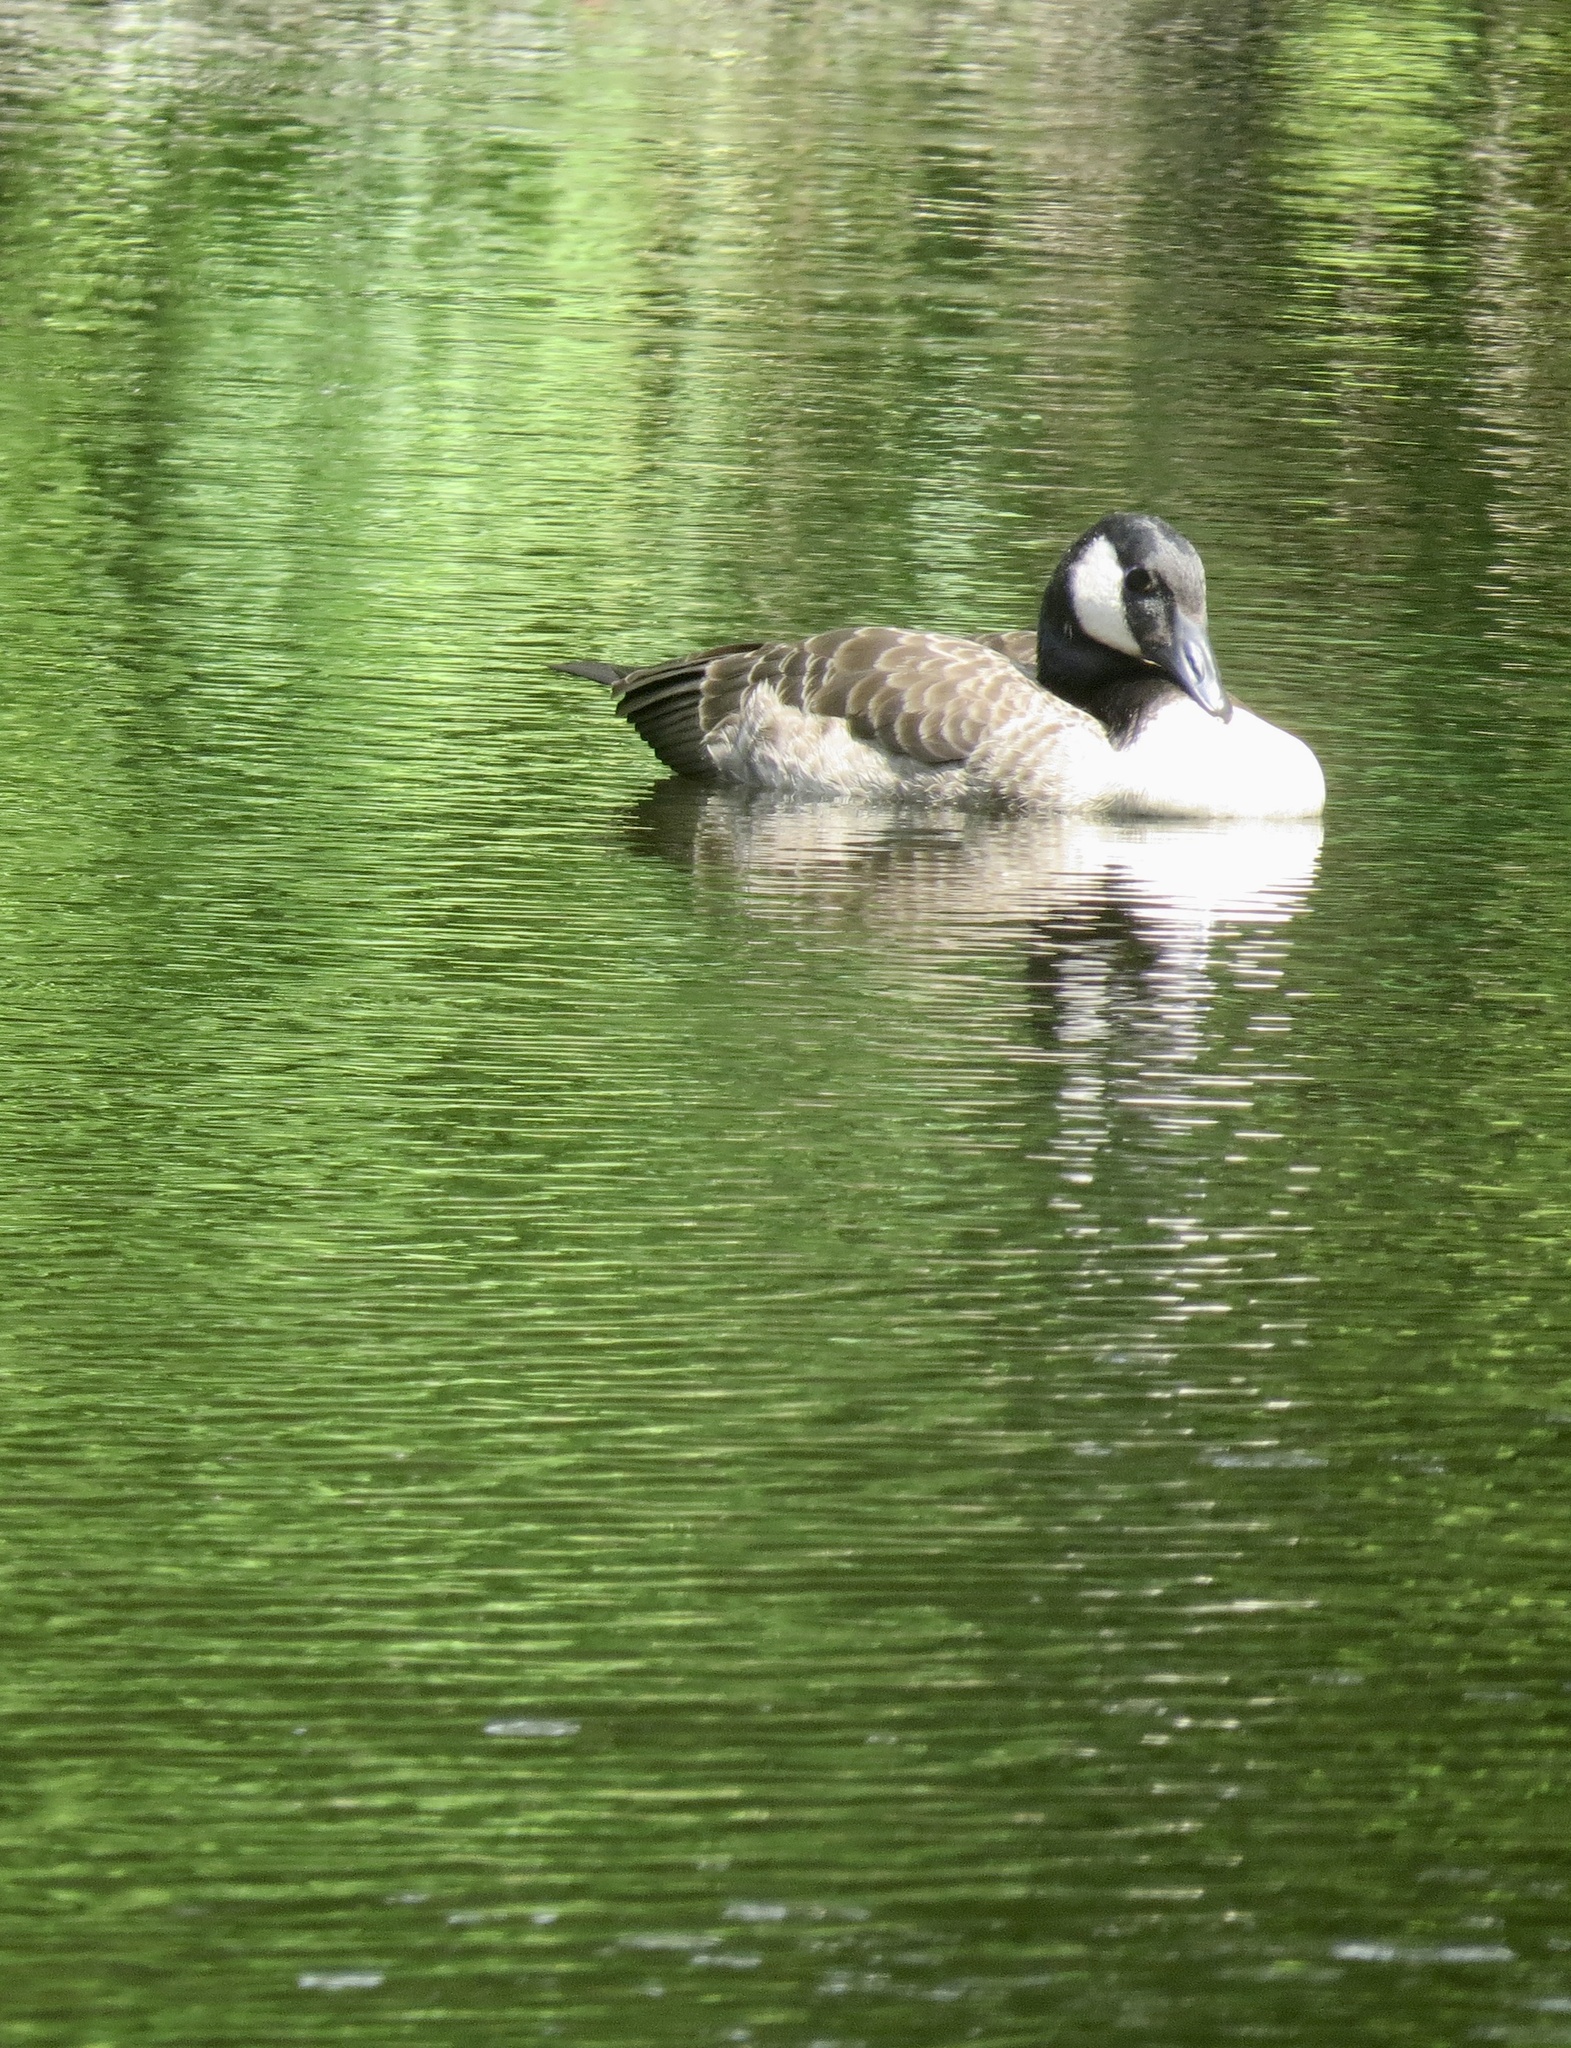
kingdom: Animalia
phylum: Chordata
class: Aves
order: Anseriformes
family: Anatidae
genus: Branta
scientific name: Branta canadensis
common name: Canada goose
